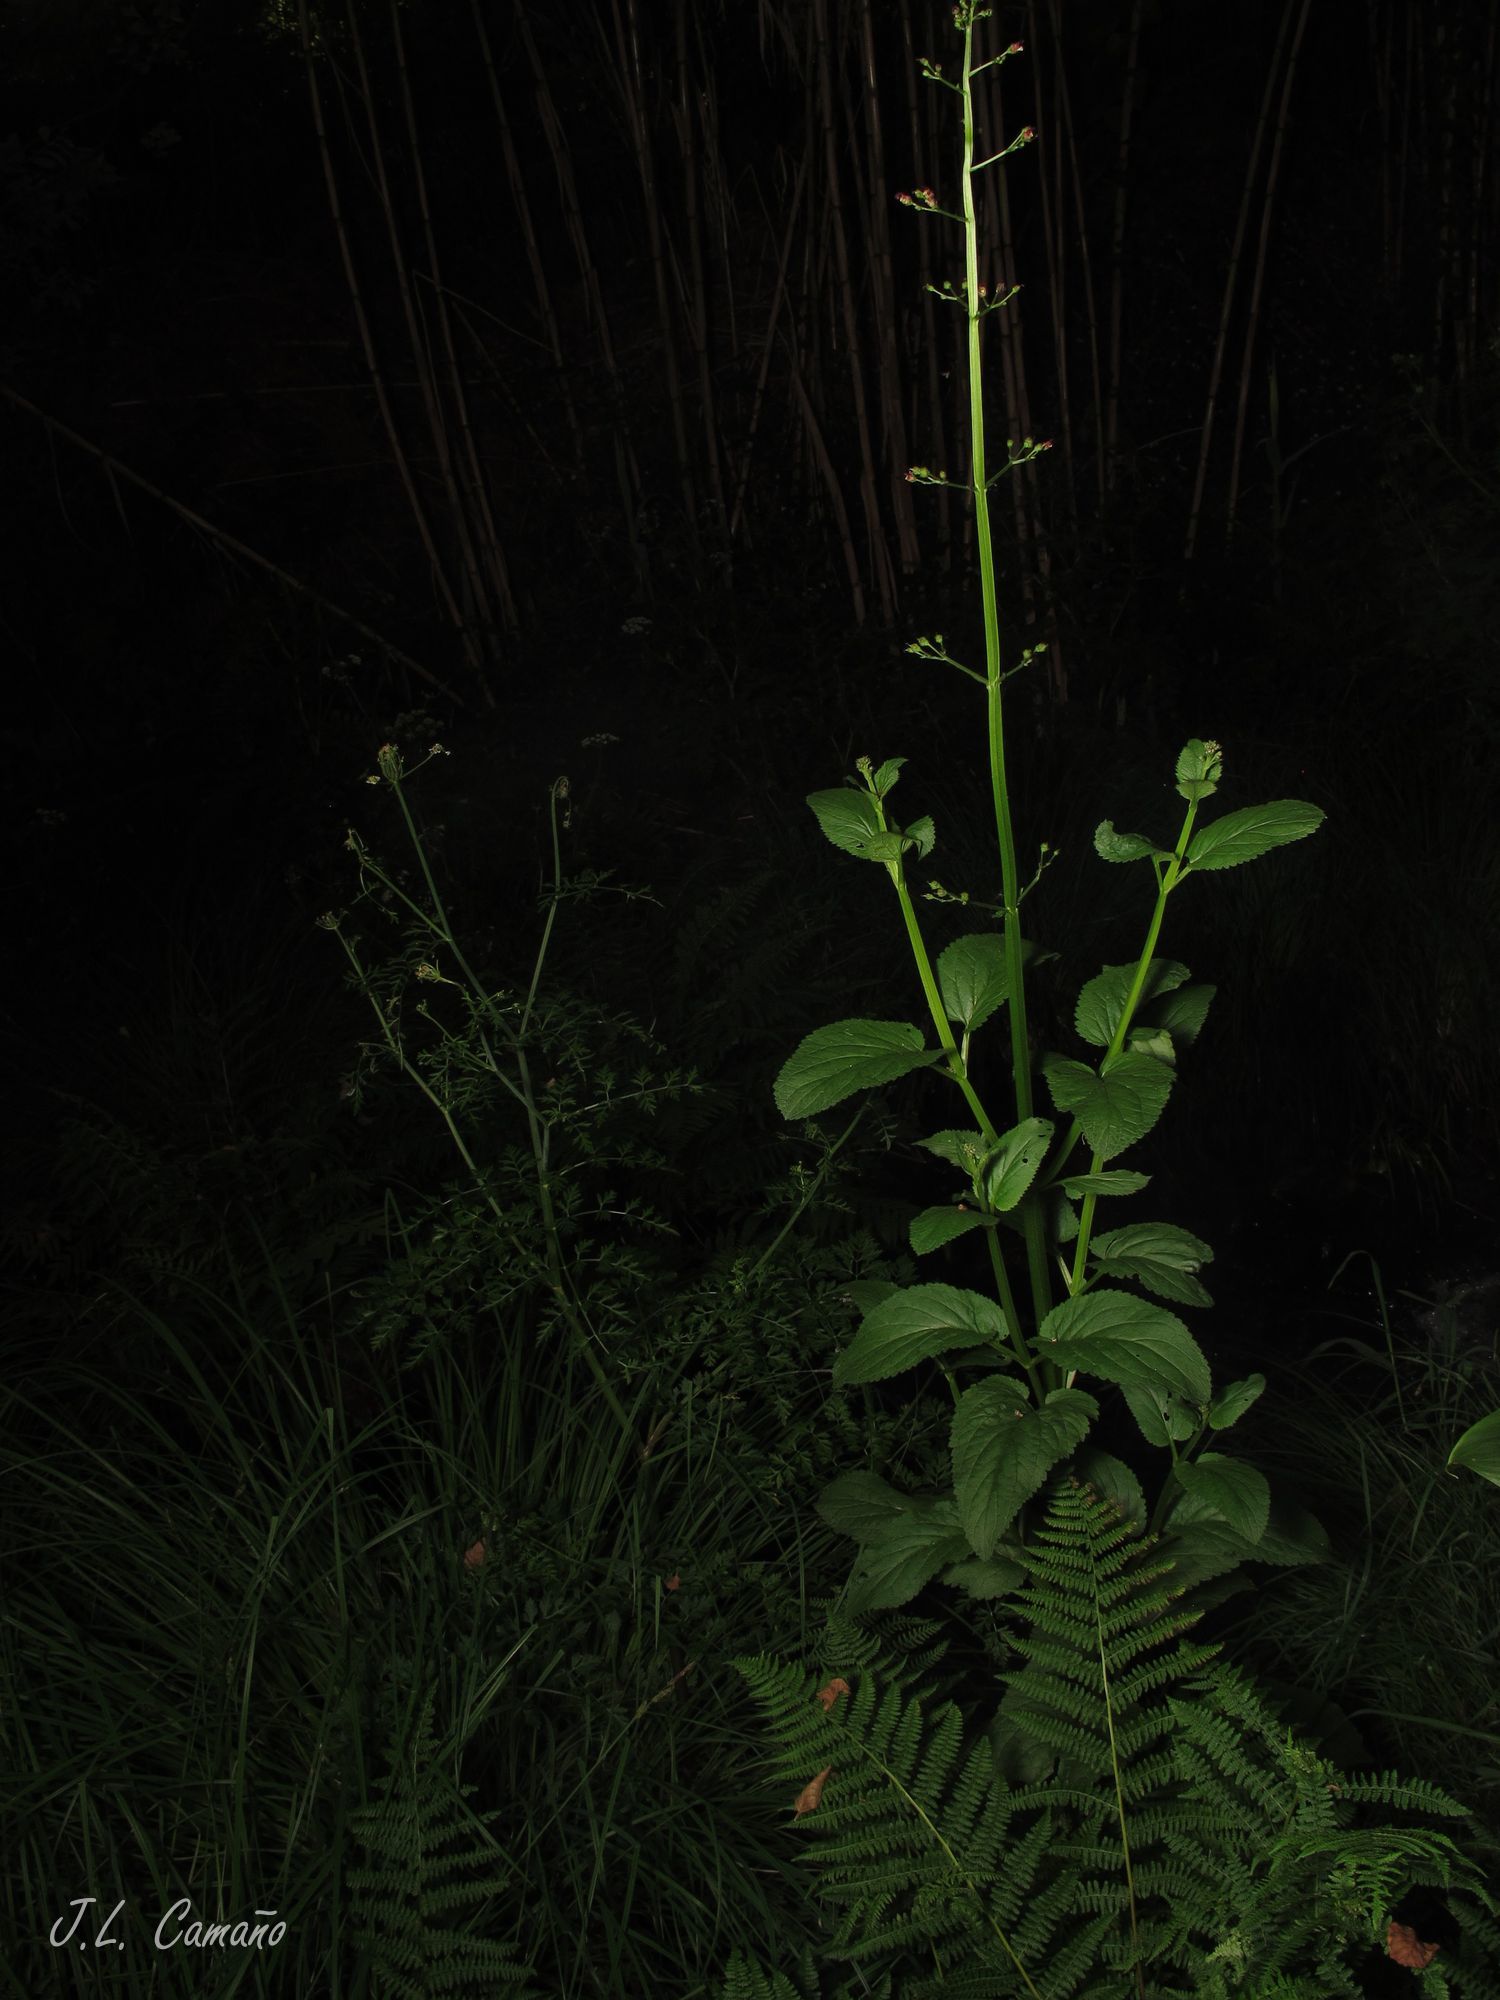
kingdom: Plantae
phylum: Tracheophyta
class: Magnoliopsida
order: Lamiales
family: Scrophulariaceae
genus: Scrophularia
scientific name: Scrophularia auriculata
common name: Water betony
